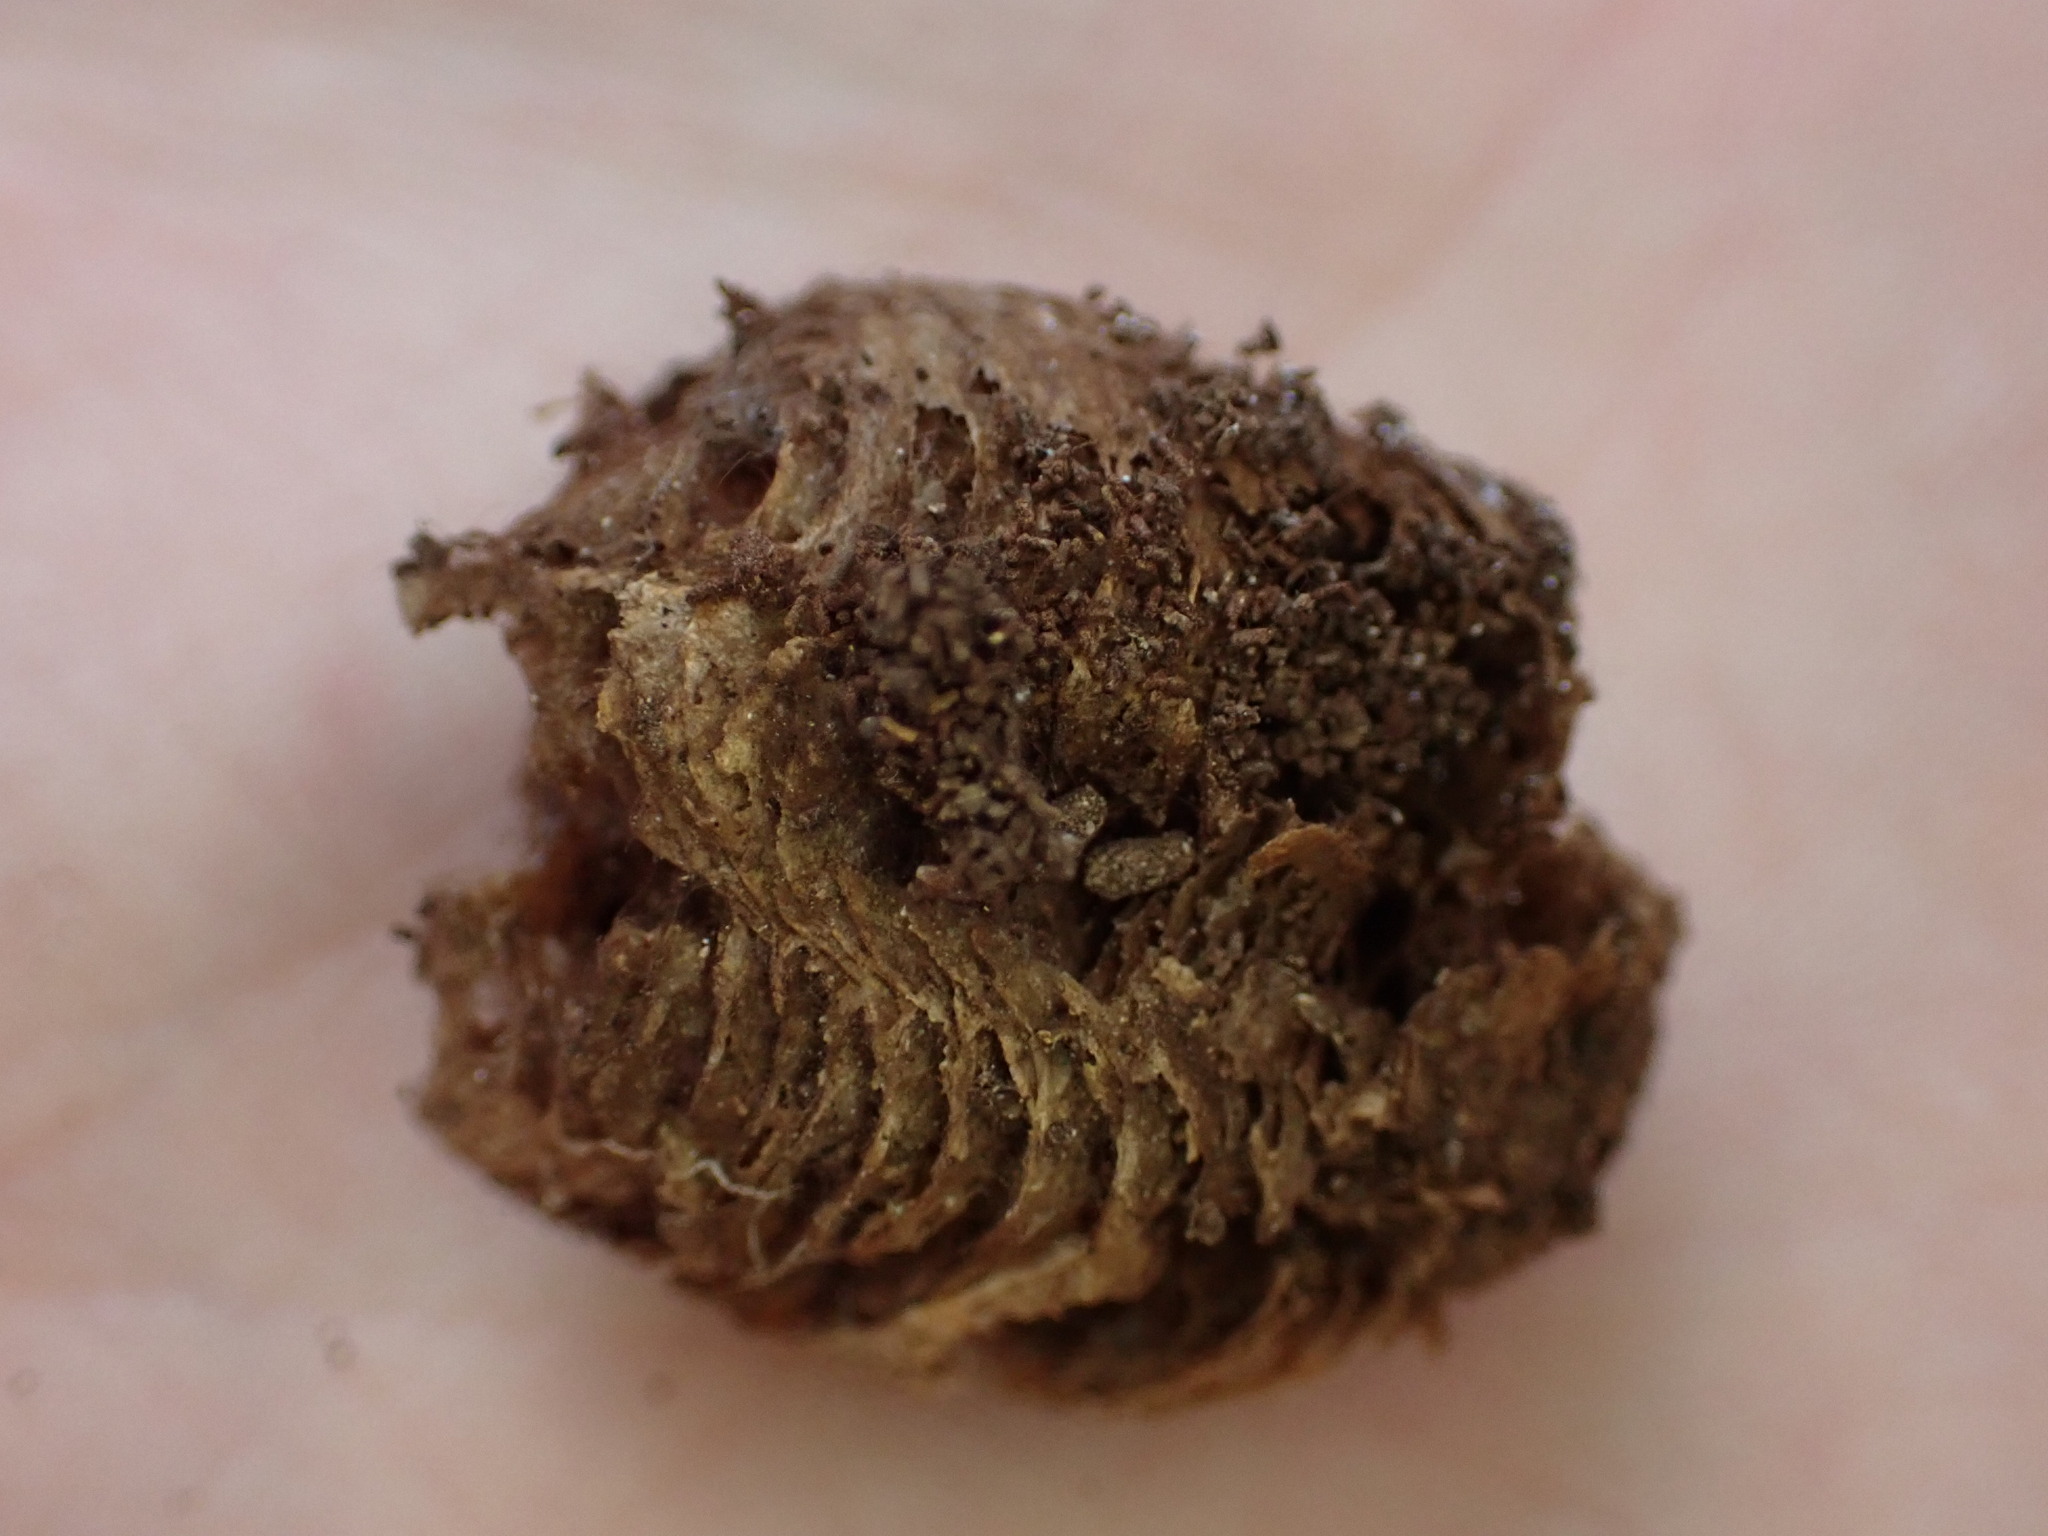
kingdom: Animalia
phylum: Arthropoda
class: Insecta
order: Mantodea
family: Mantidae
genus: Mantis
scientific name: Mantis religiosa
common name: Praying mantis
